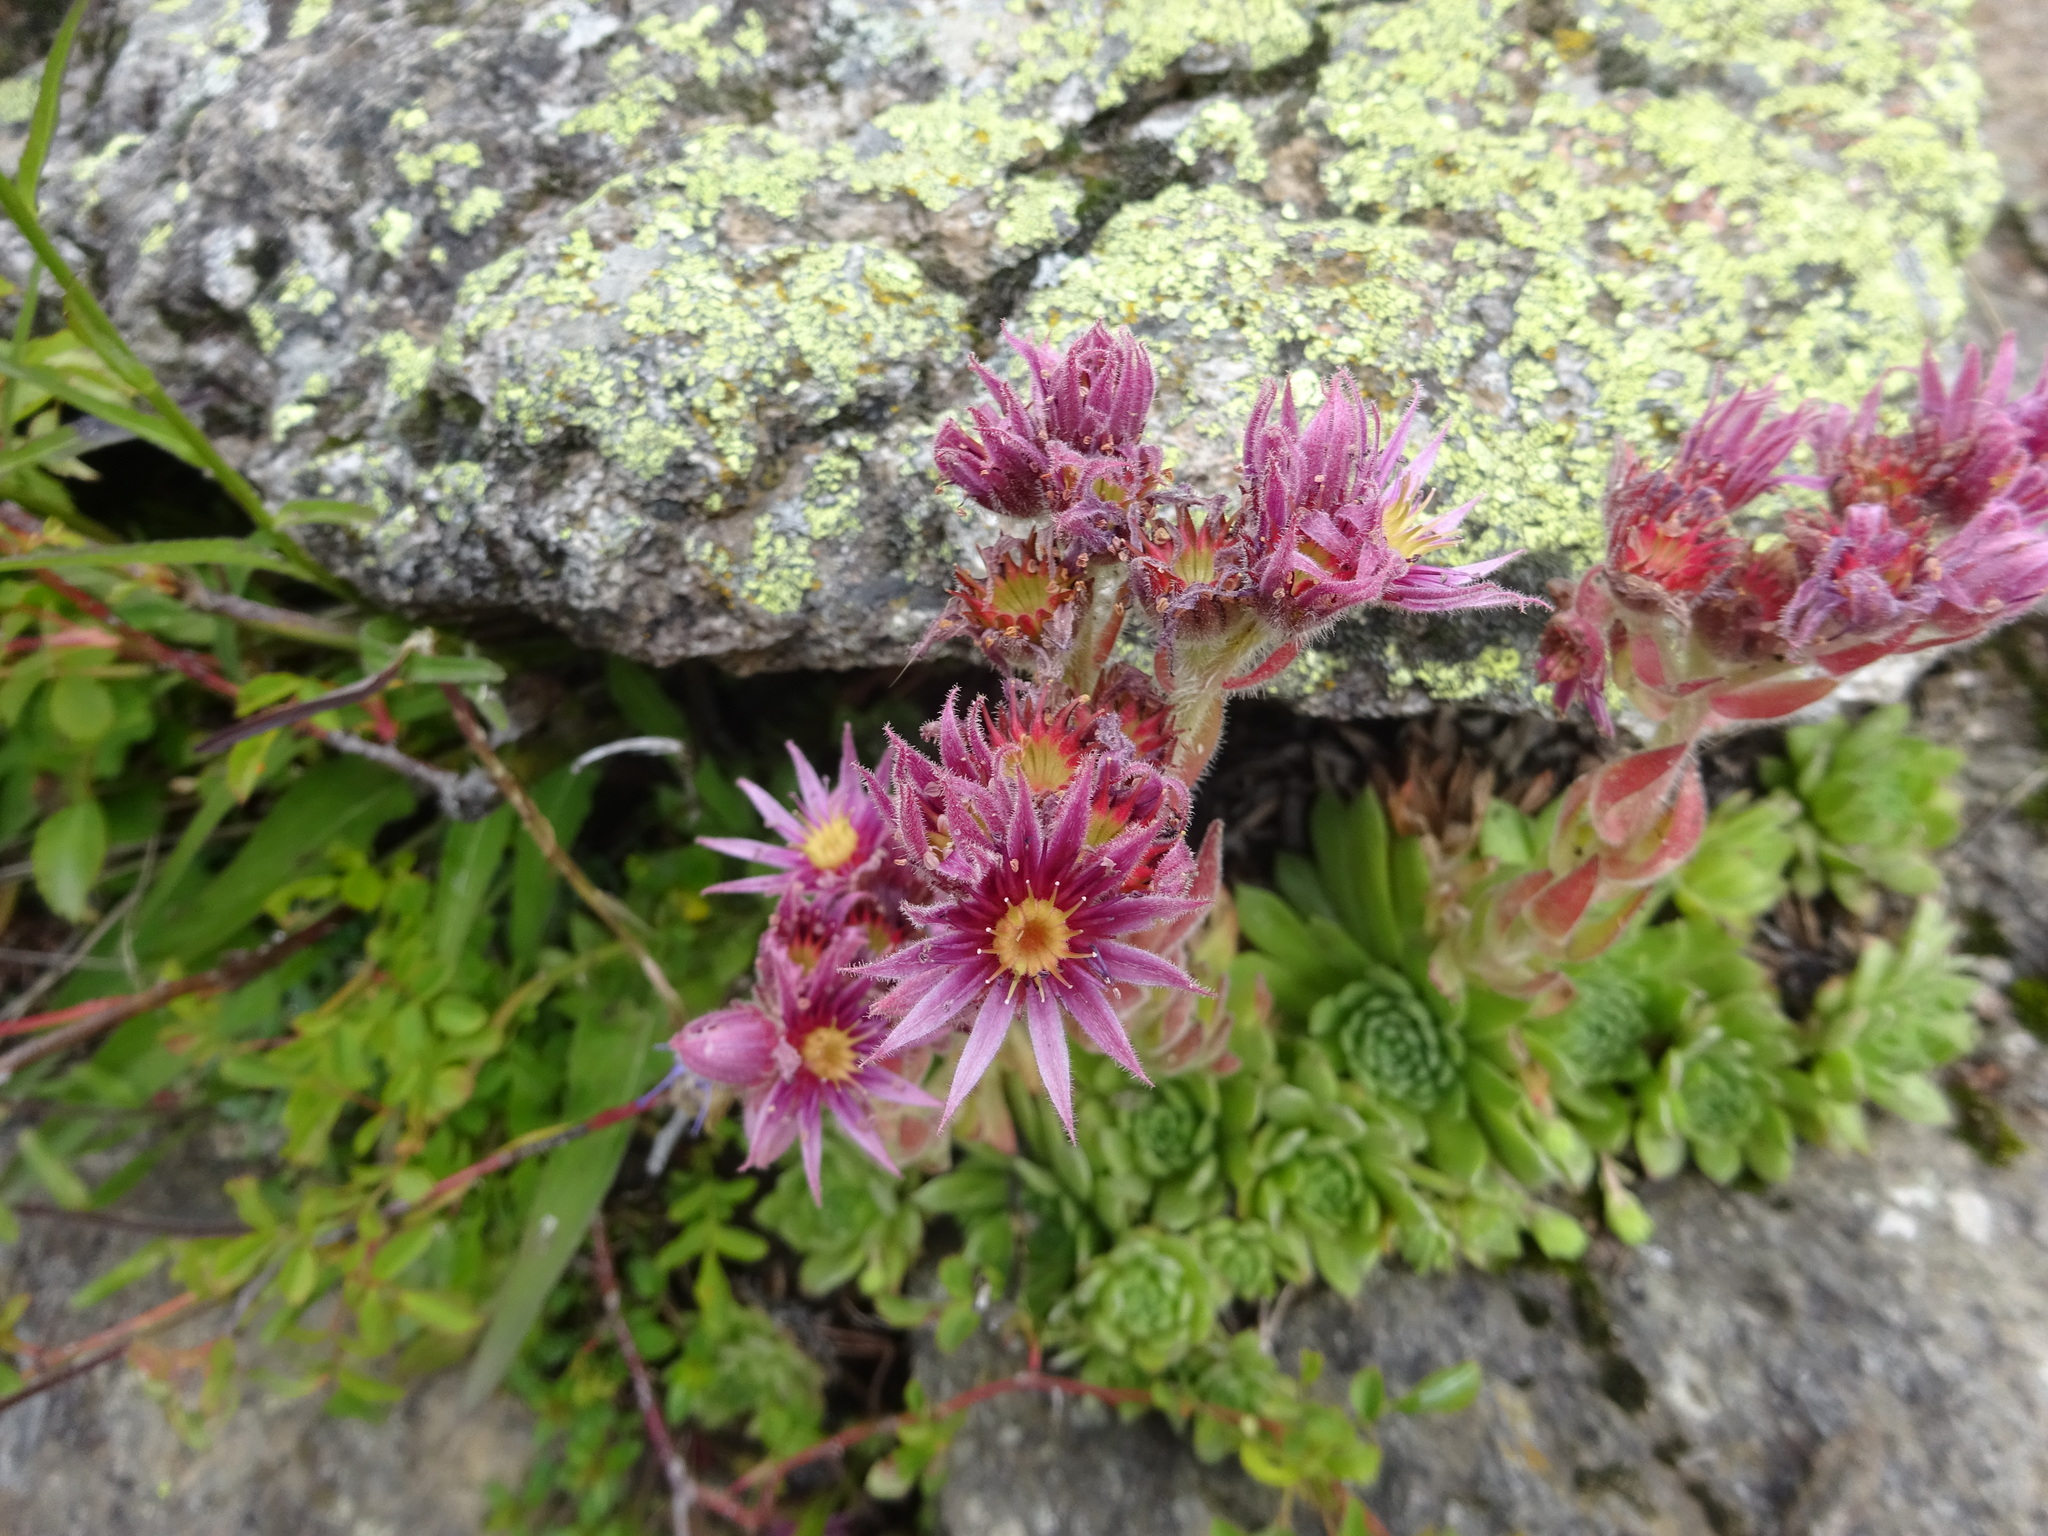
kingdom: Plantae
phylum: Tracheophyta
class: Magnoliopsida
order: Saxifragales
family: Crassulaceae
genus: Sempervivum
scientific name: Sempervivum montanum
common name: Mountain house-leek
